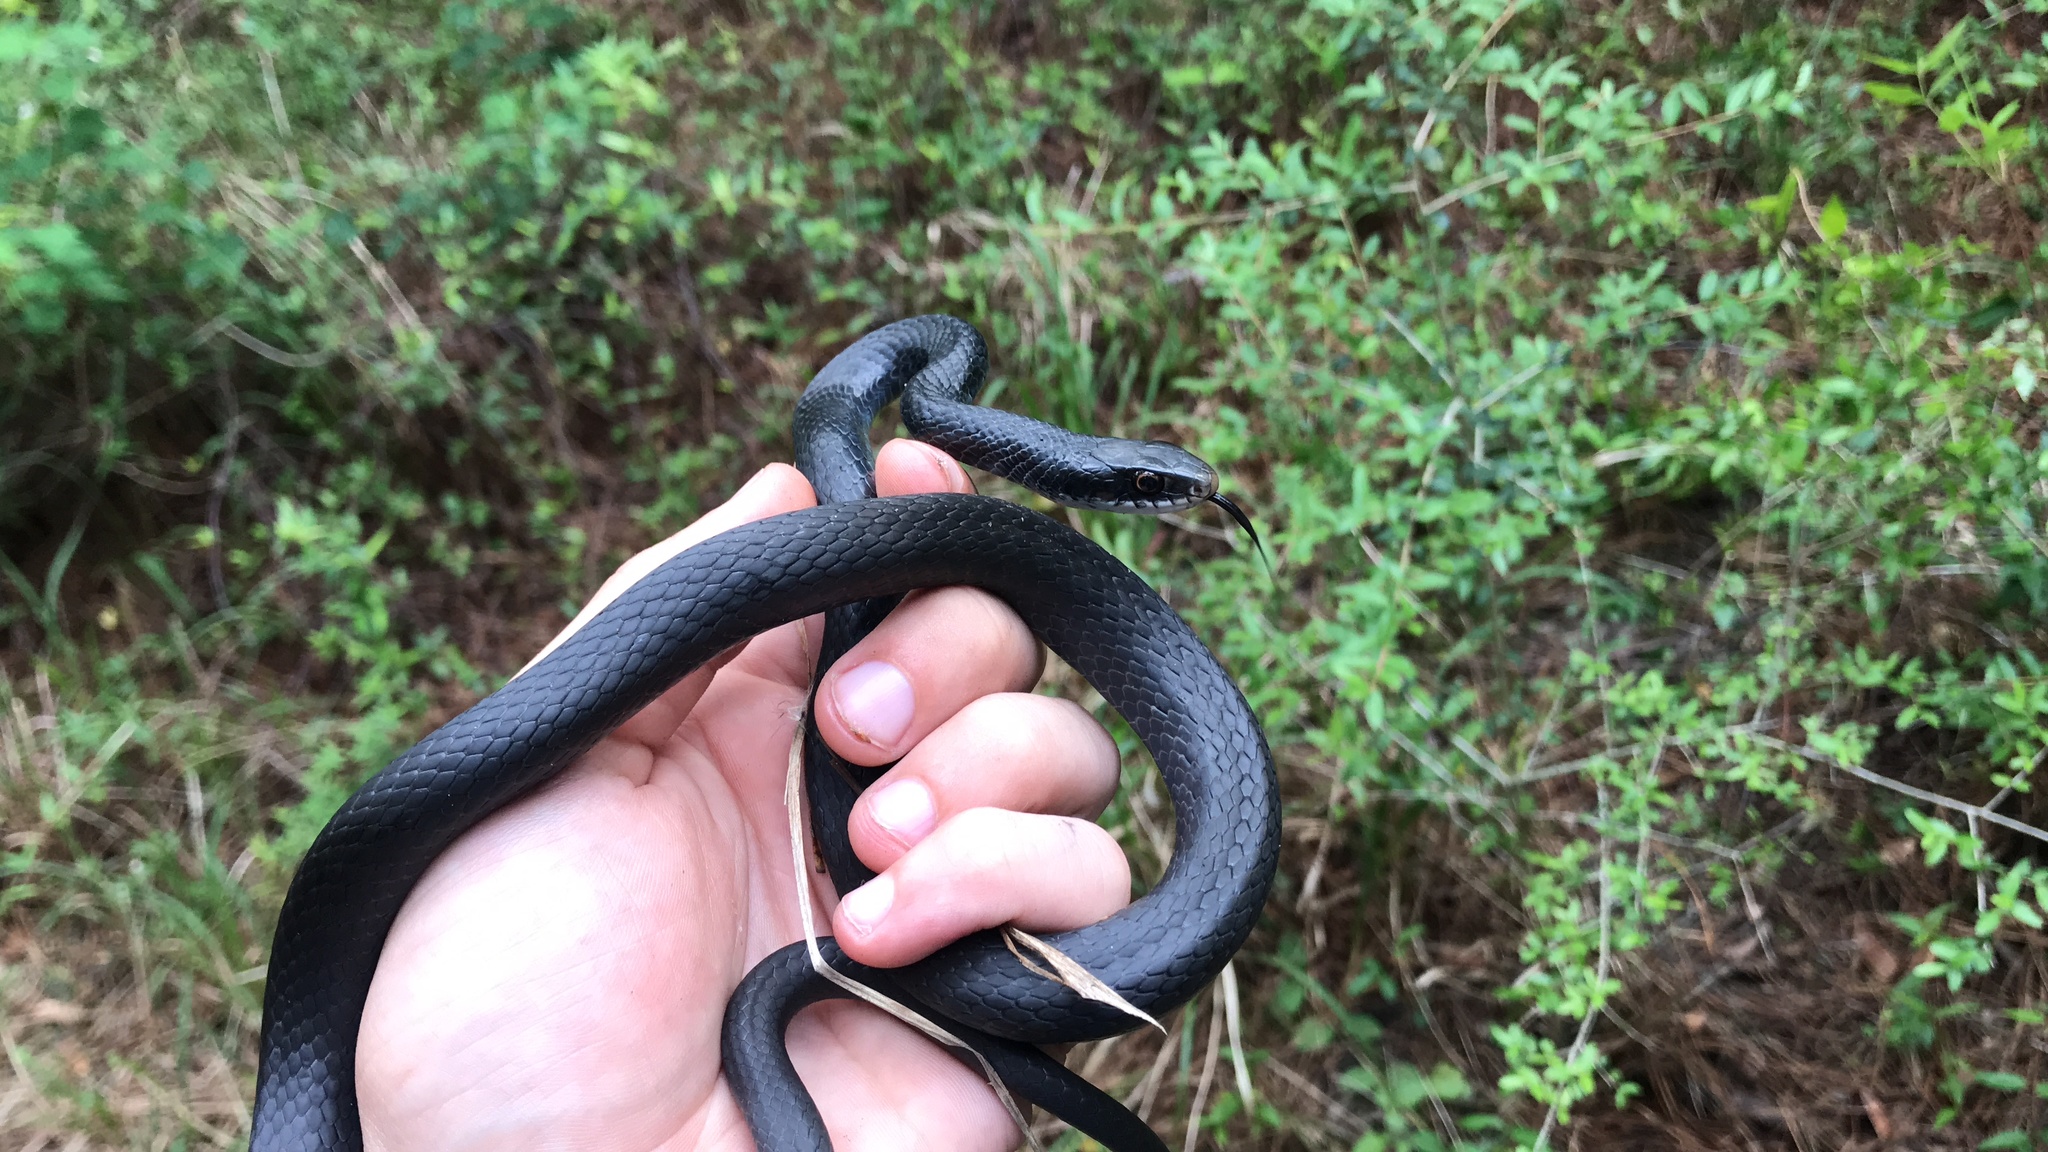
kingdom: Animalia
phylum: Chordata
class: Squamata
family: Colubridae
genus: Coluber
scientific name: Coluber constrictor
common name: Eastern racer
